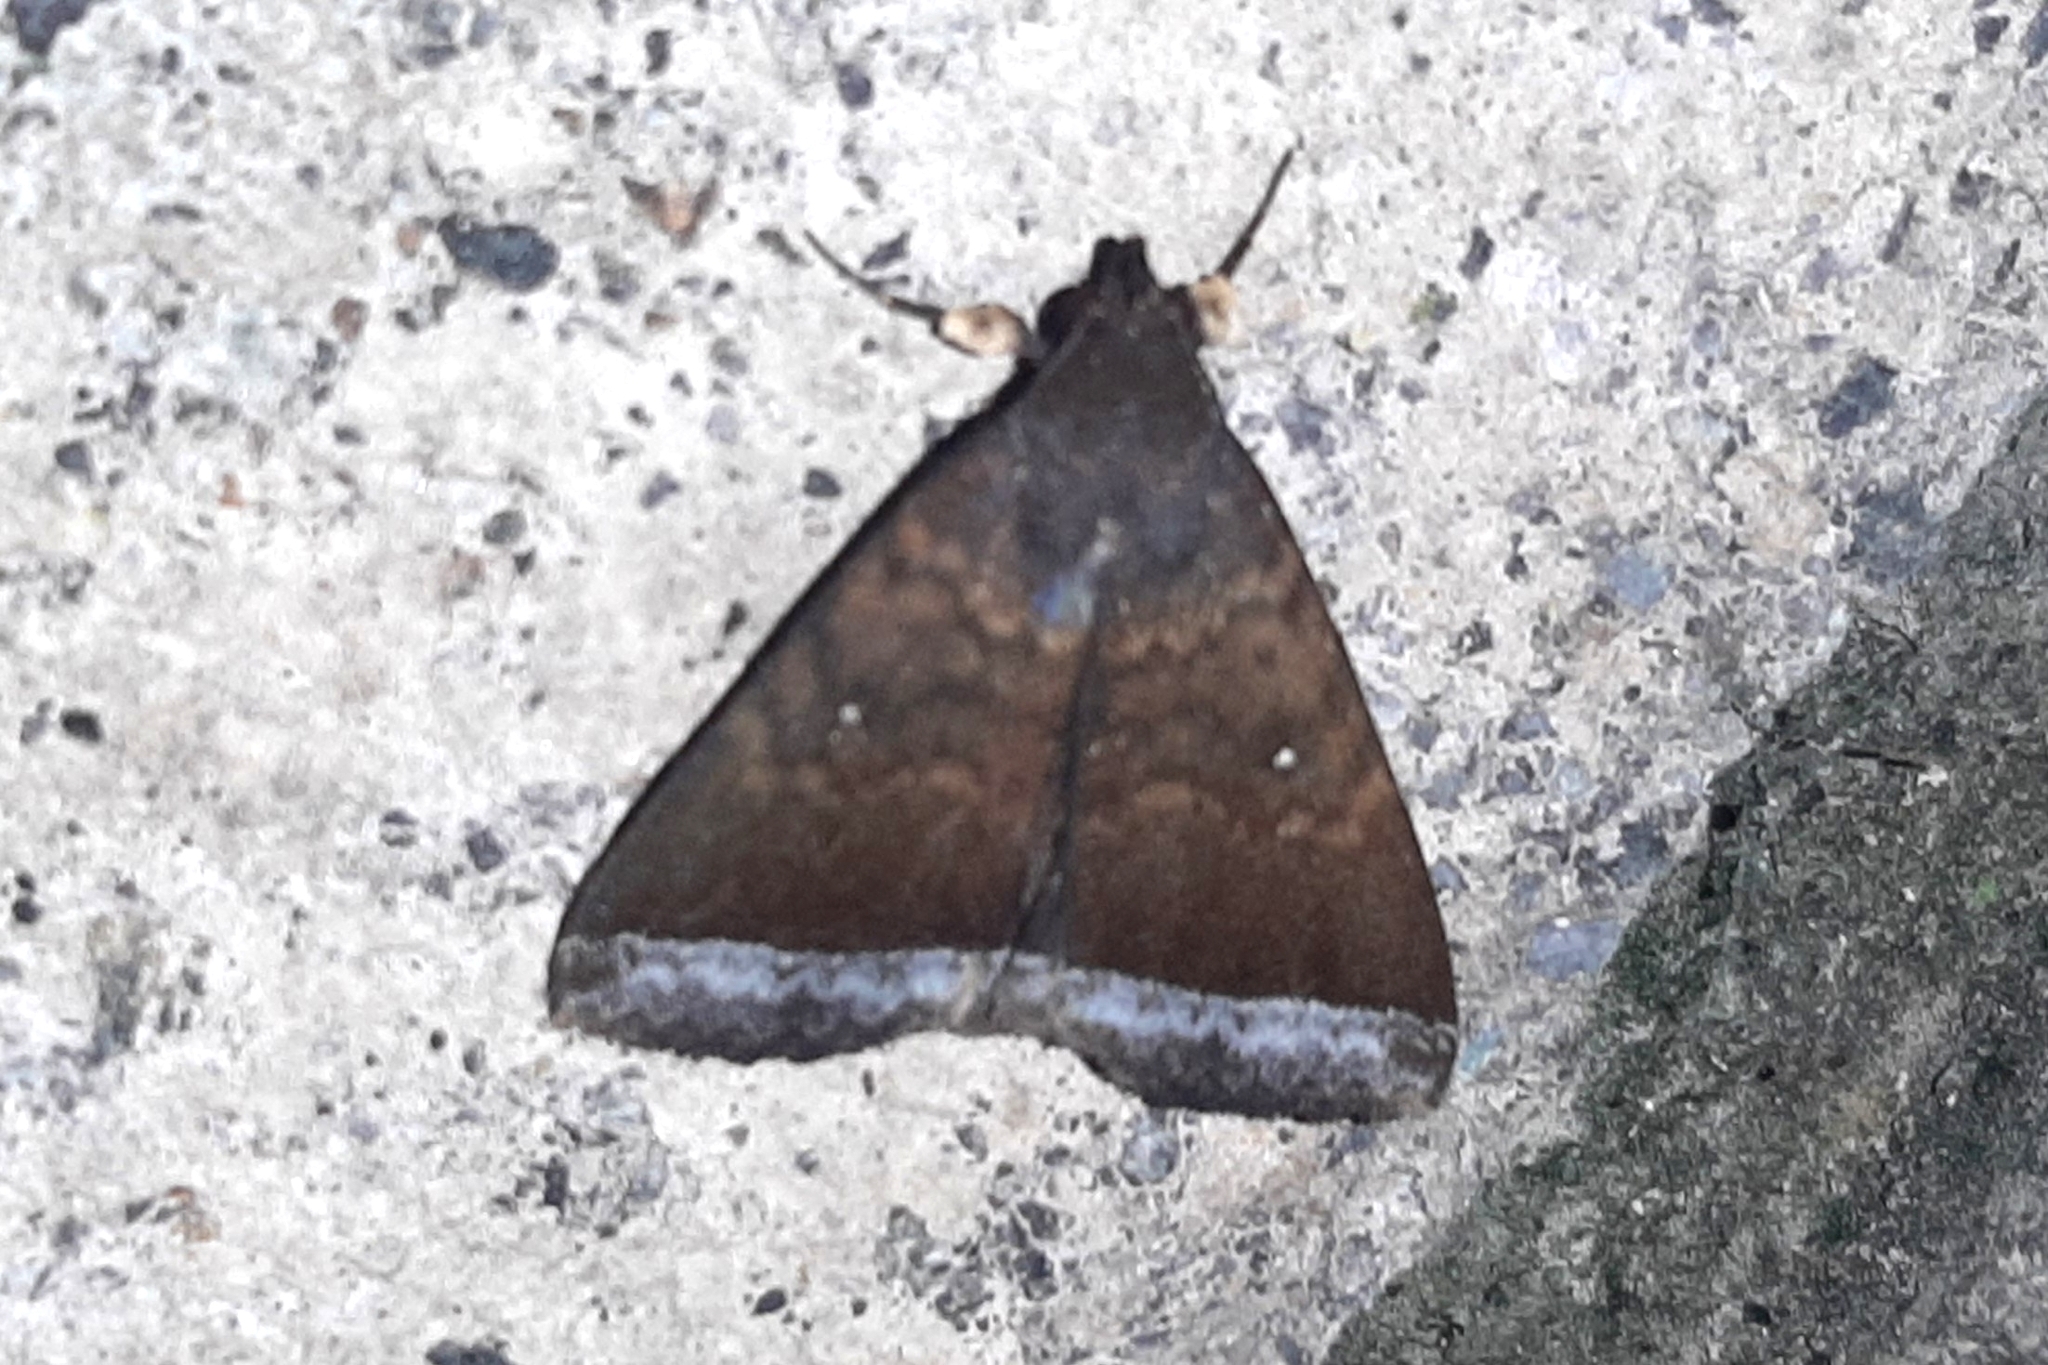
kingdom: Animalia
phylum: Arthropoda
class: Insecta
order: Lepidoptera
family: Erebidae
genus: Mamerthes
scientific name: Mamerthes orionalis
